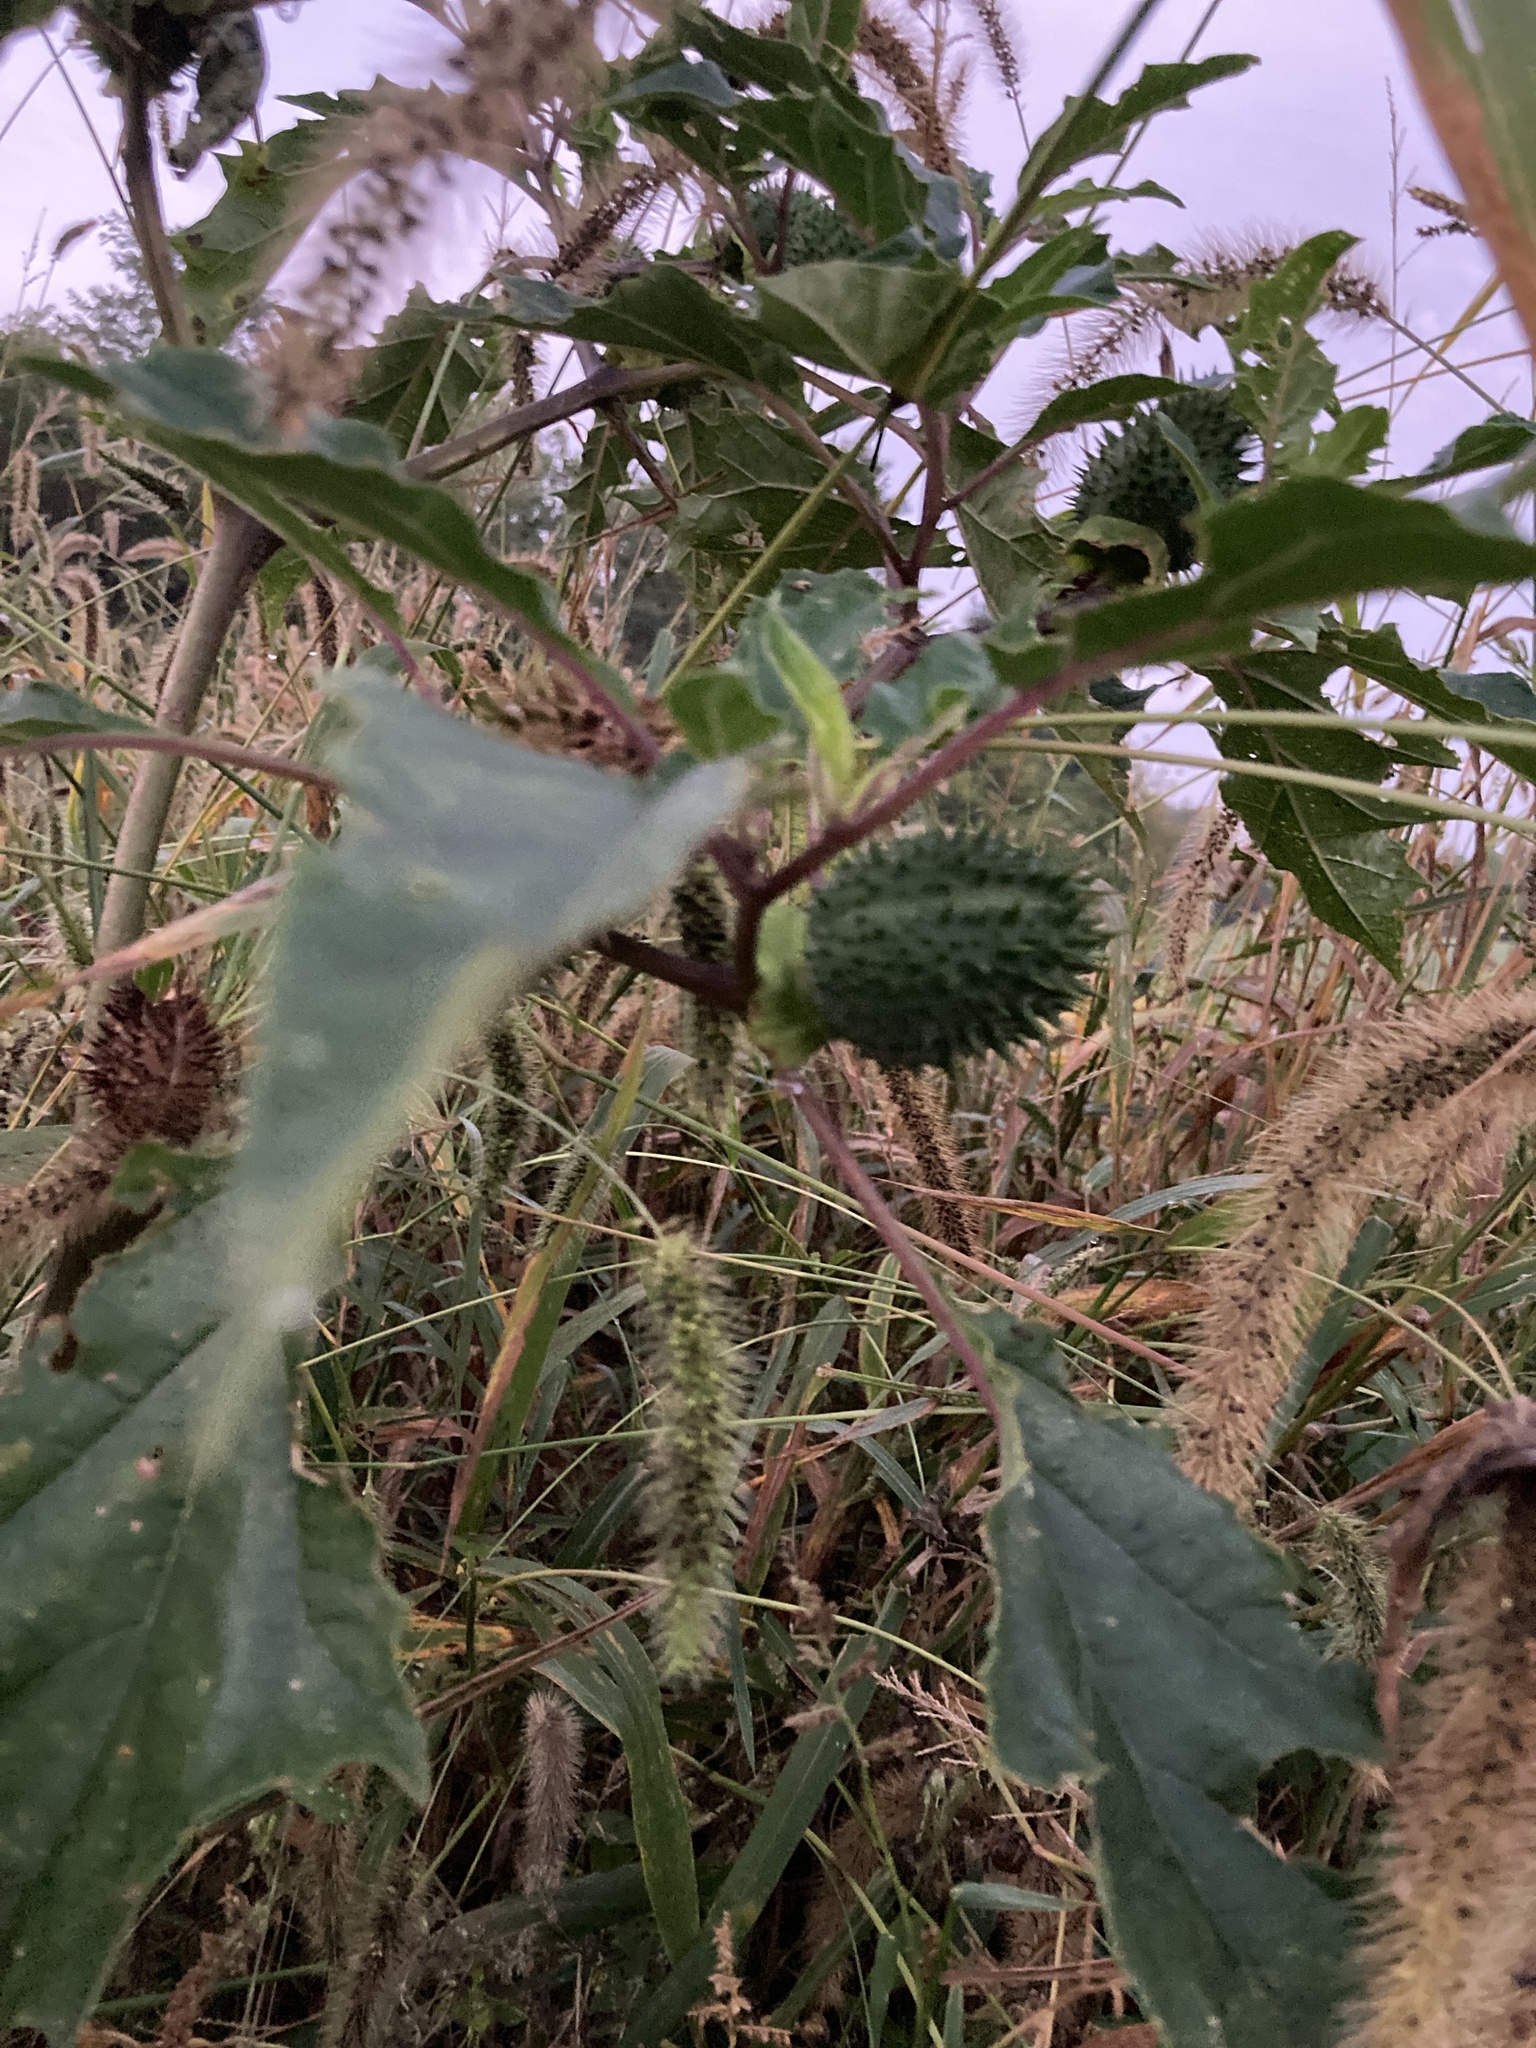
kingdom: Plantae
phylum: Tracheophyta
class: Magnoliopsida
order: Solanales
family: Solanaceae
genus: Datura
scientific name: Datura stramonium
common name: Thorn-apple
